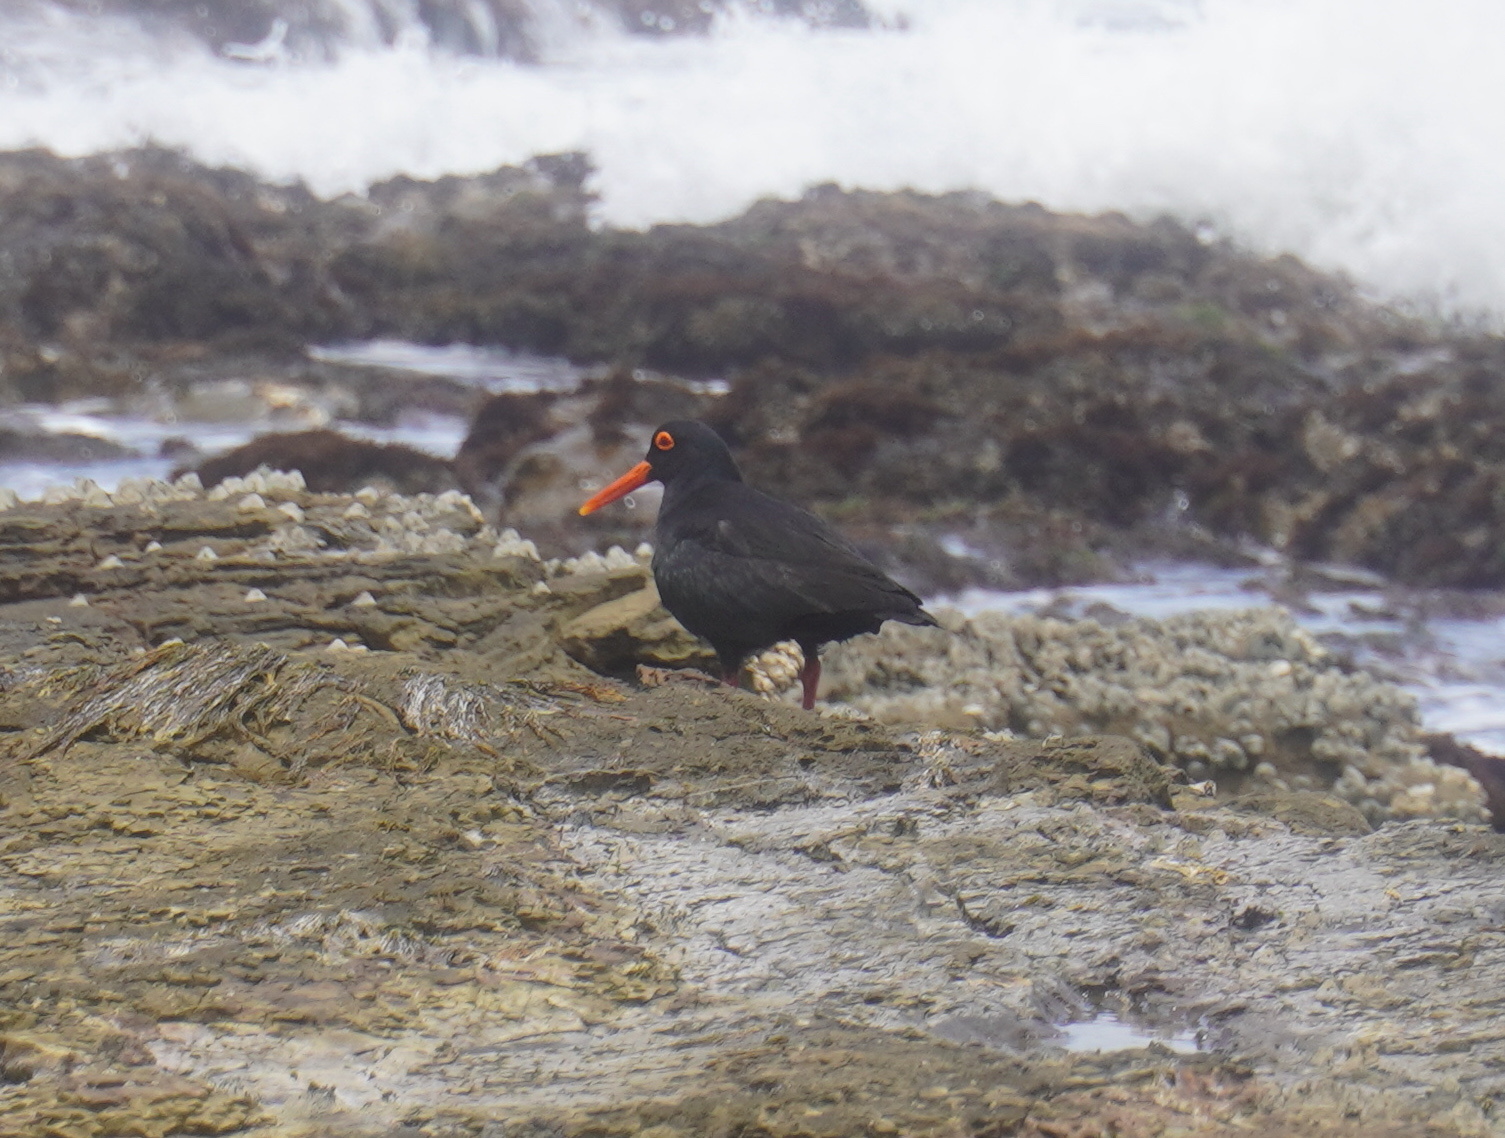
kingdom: Animalia
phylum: Chordata
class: Aves
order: Charadriiformes
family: Haematopodidae
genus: Haematopus
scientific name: Haematopus moquini
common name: African oystercatcher
